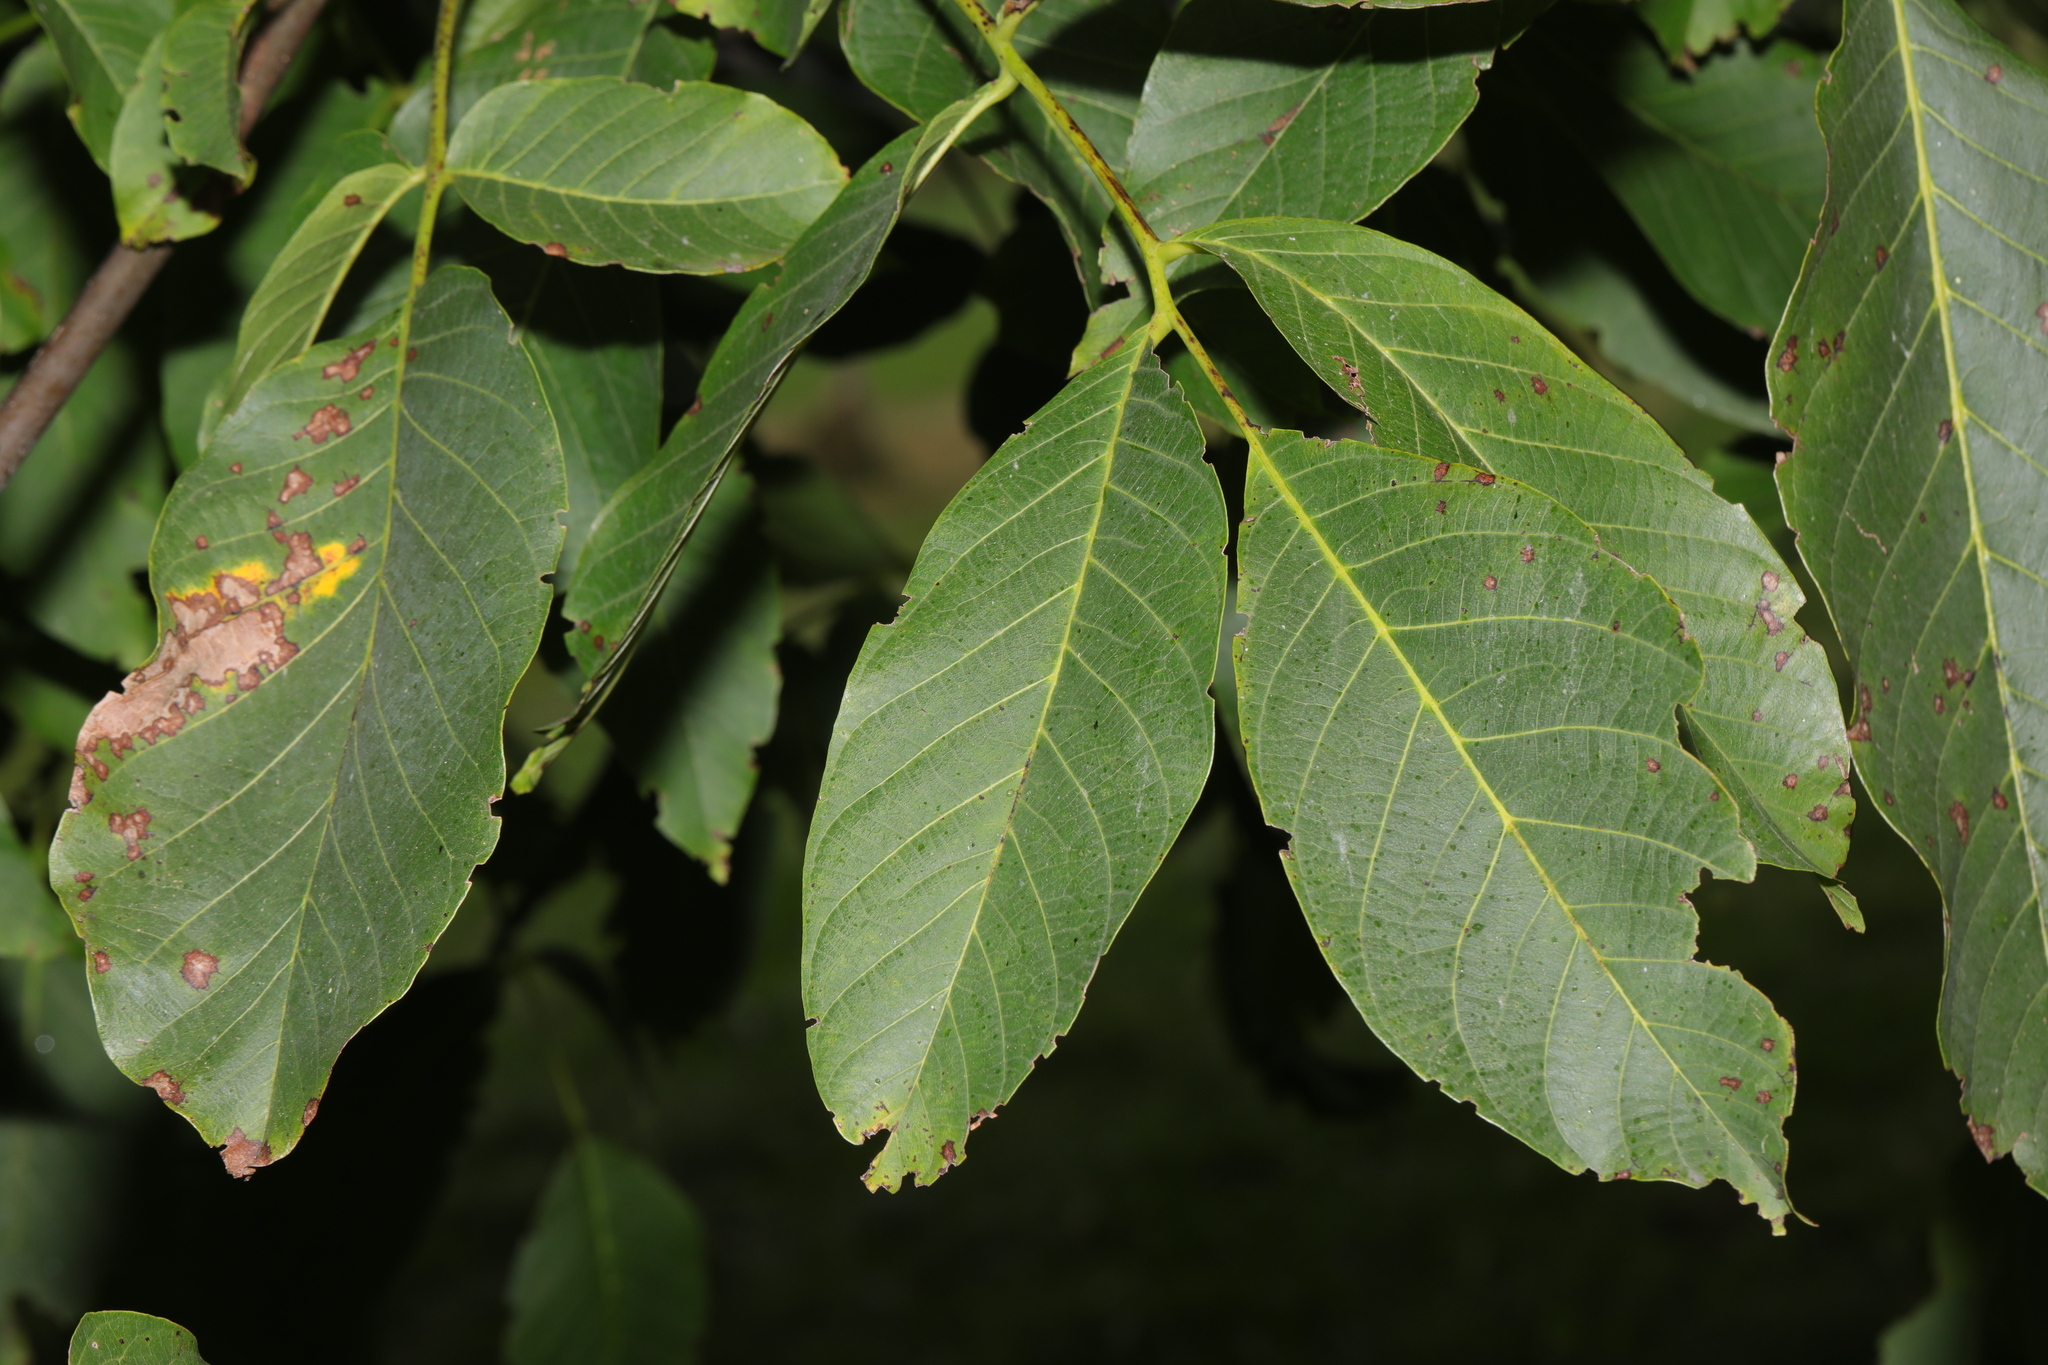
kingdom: Plantae
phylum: Tracheophyta
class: Magnoliopsida
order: Fagales
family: Juglandaceae
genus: Juglans
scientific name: Juglans regia
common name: Walnut
